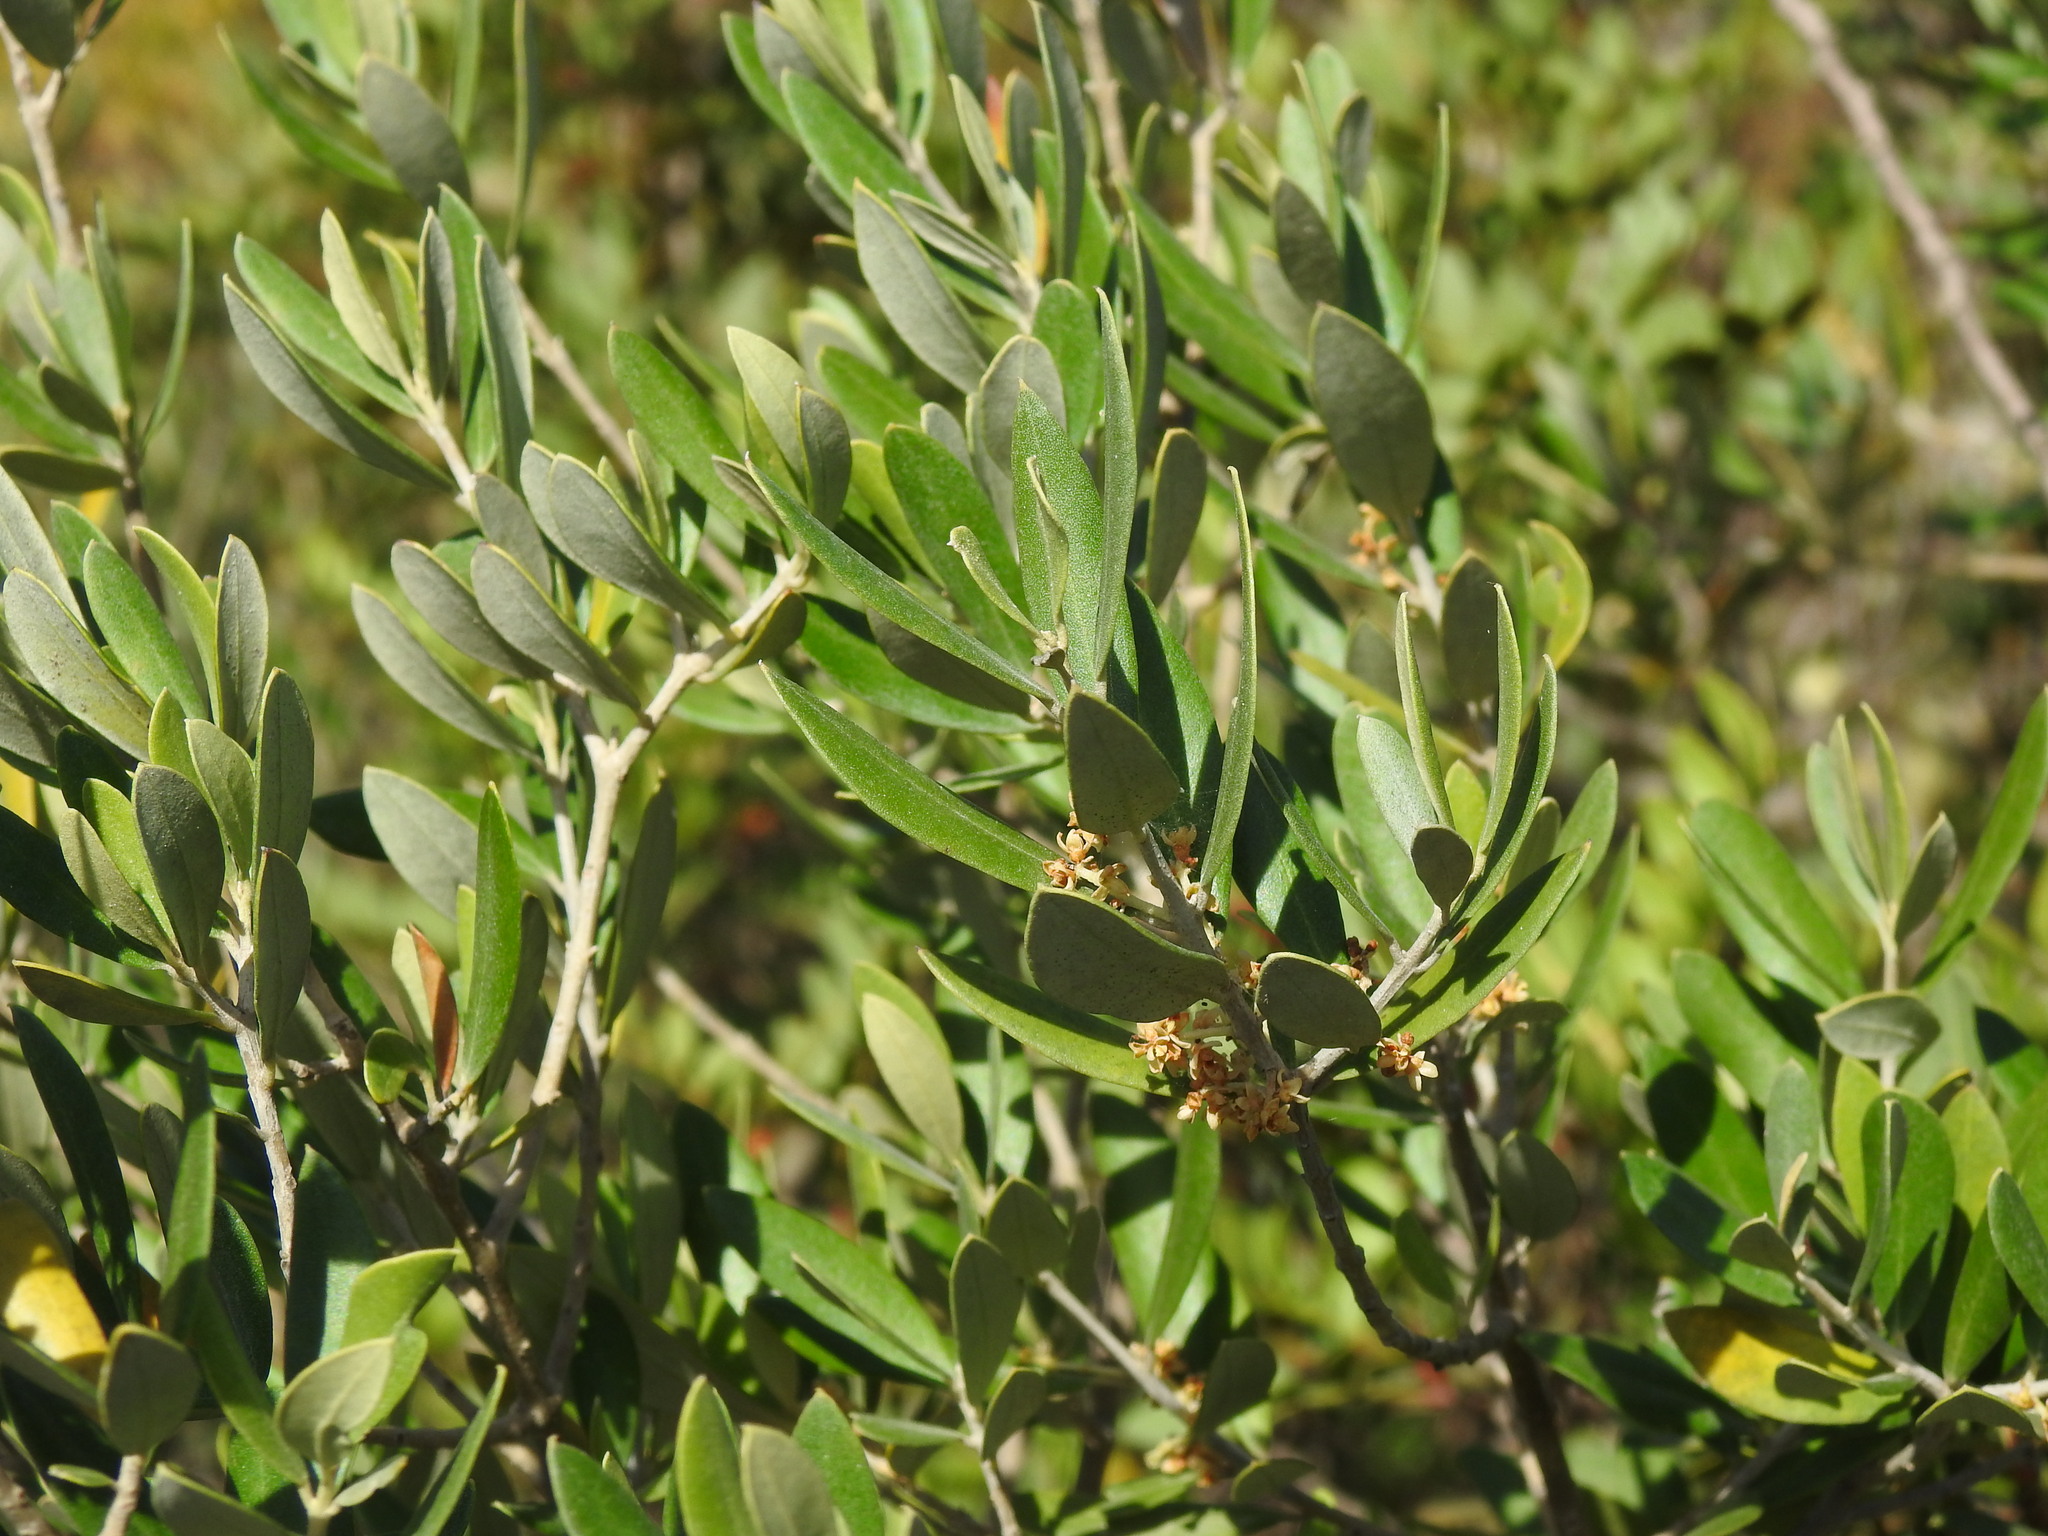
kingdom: Plantae
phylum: Tracheophyta
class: Magnoliopsida
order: Lamiales
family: Oleaceae
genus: Olea
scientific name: Olea europaea
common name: Olive
